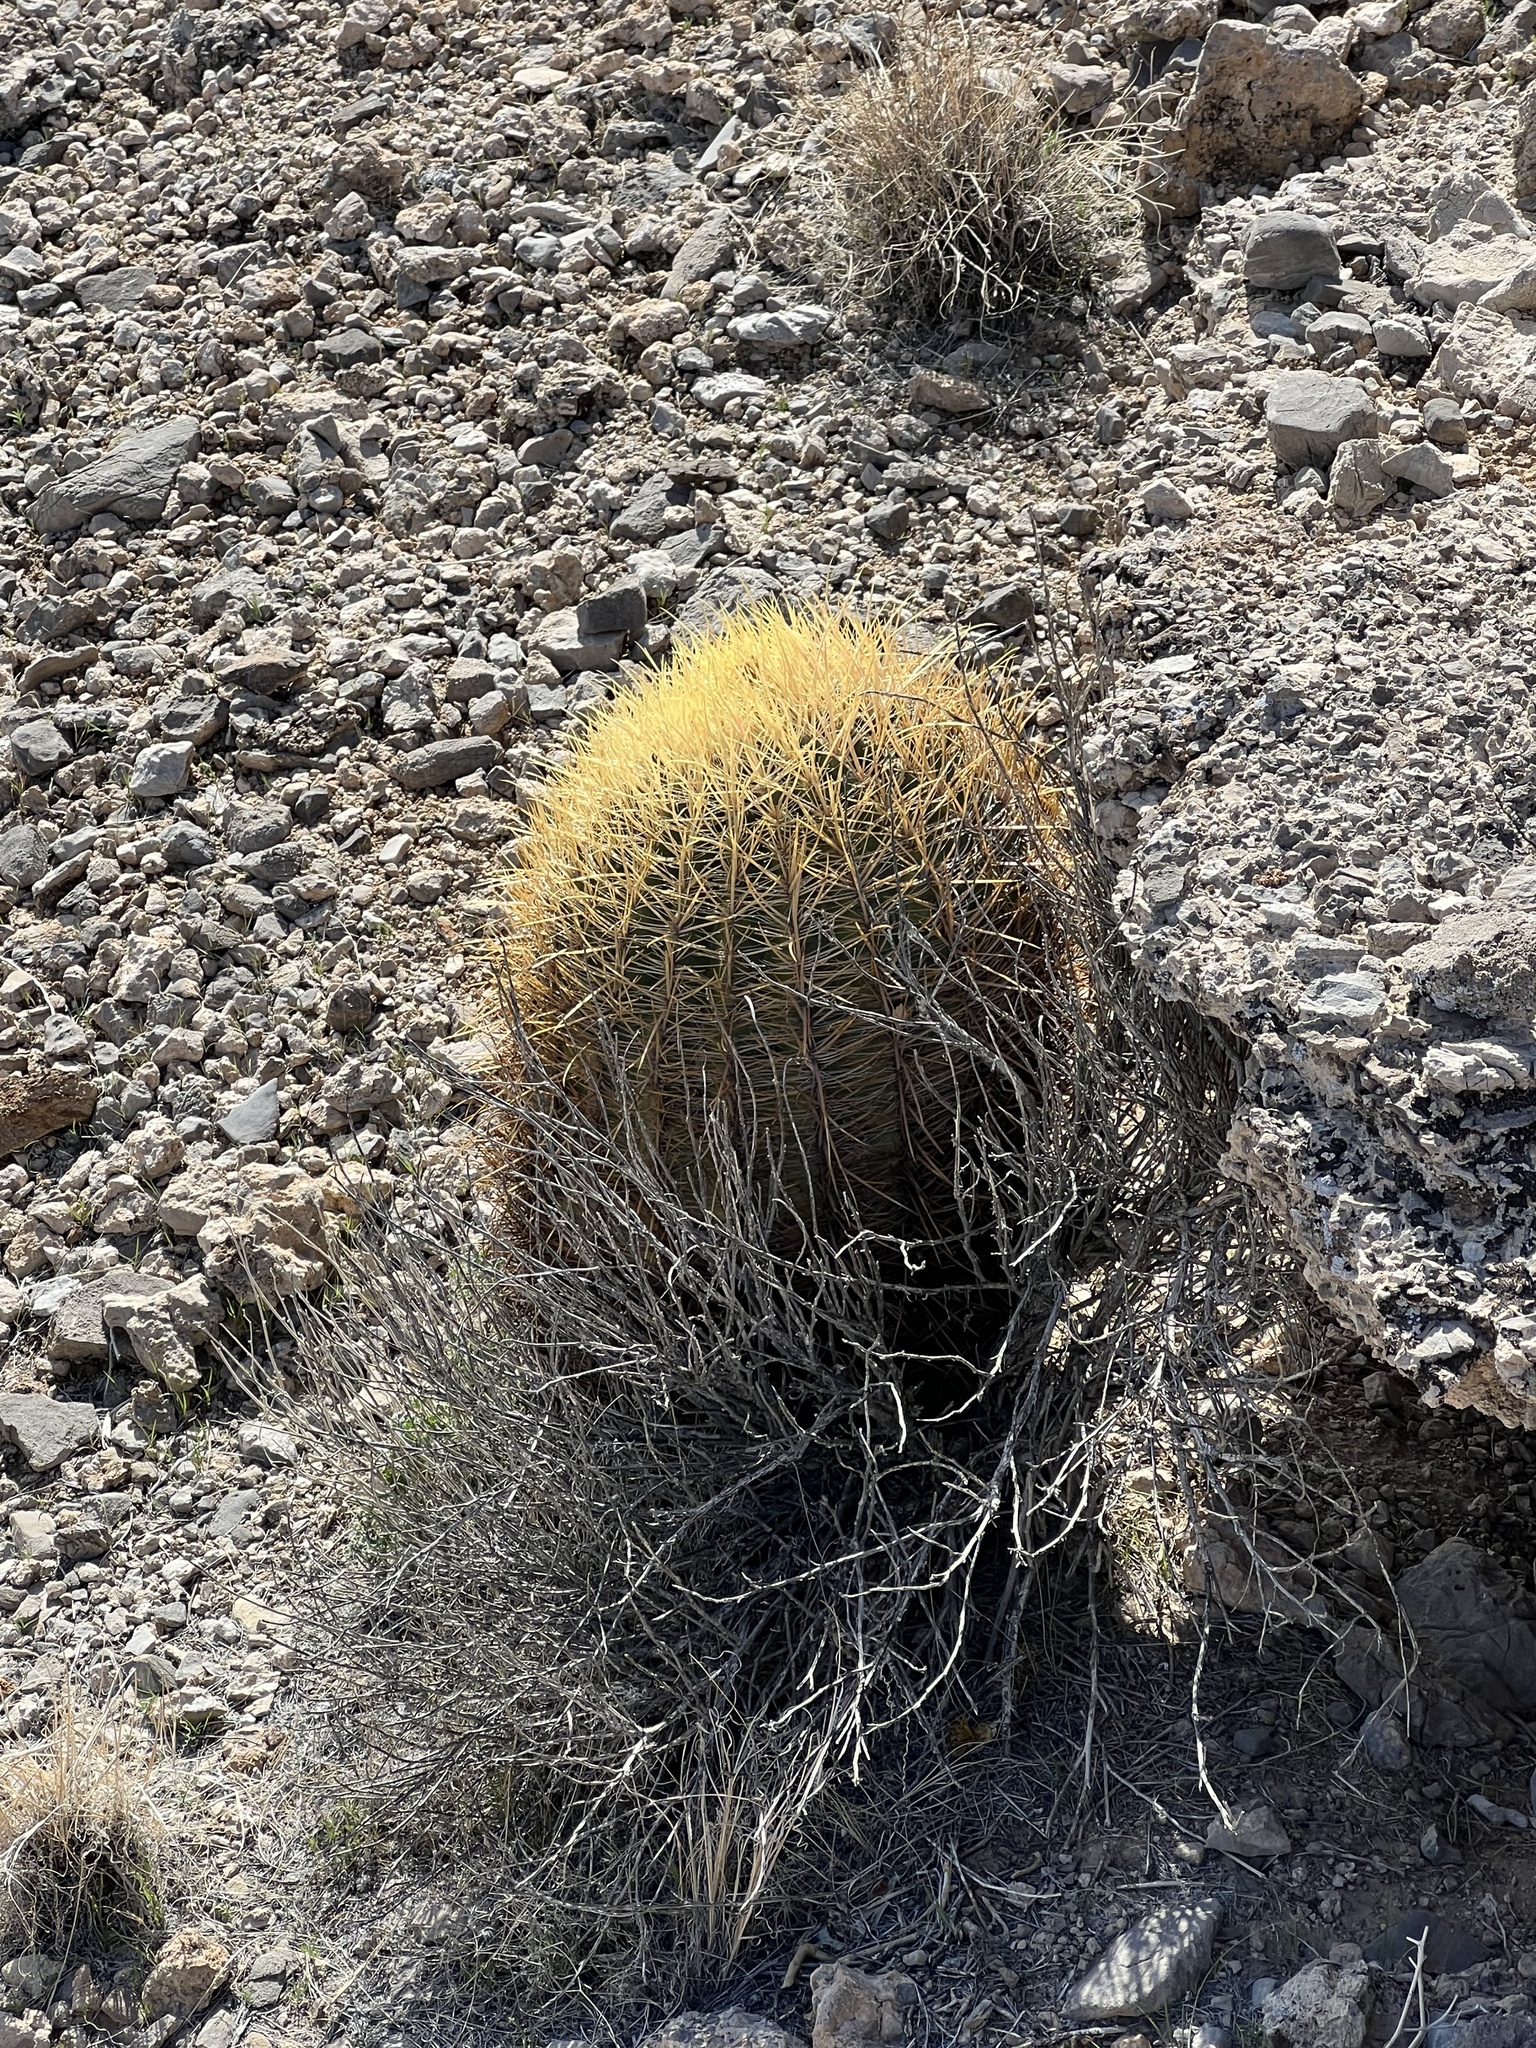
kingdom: Plantae
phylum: Tracheophyta
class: Magnoliopsida
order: Caryophyllales
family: Cactaceae
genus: Ferocactus
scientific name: Ferocactus cylindraceus
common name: California barrel cactus
